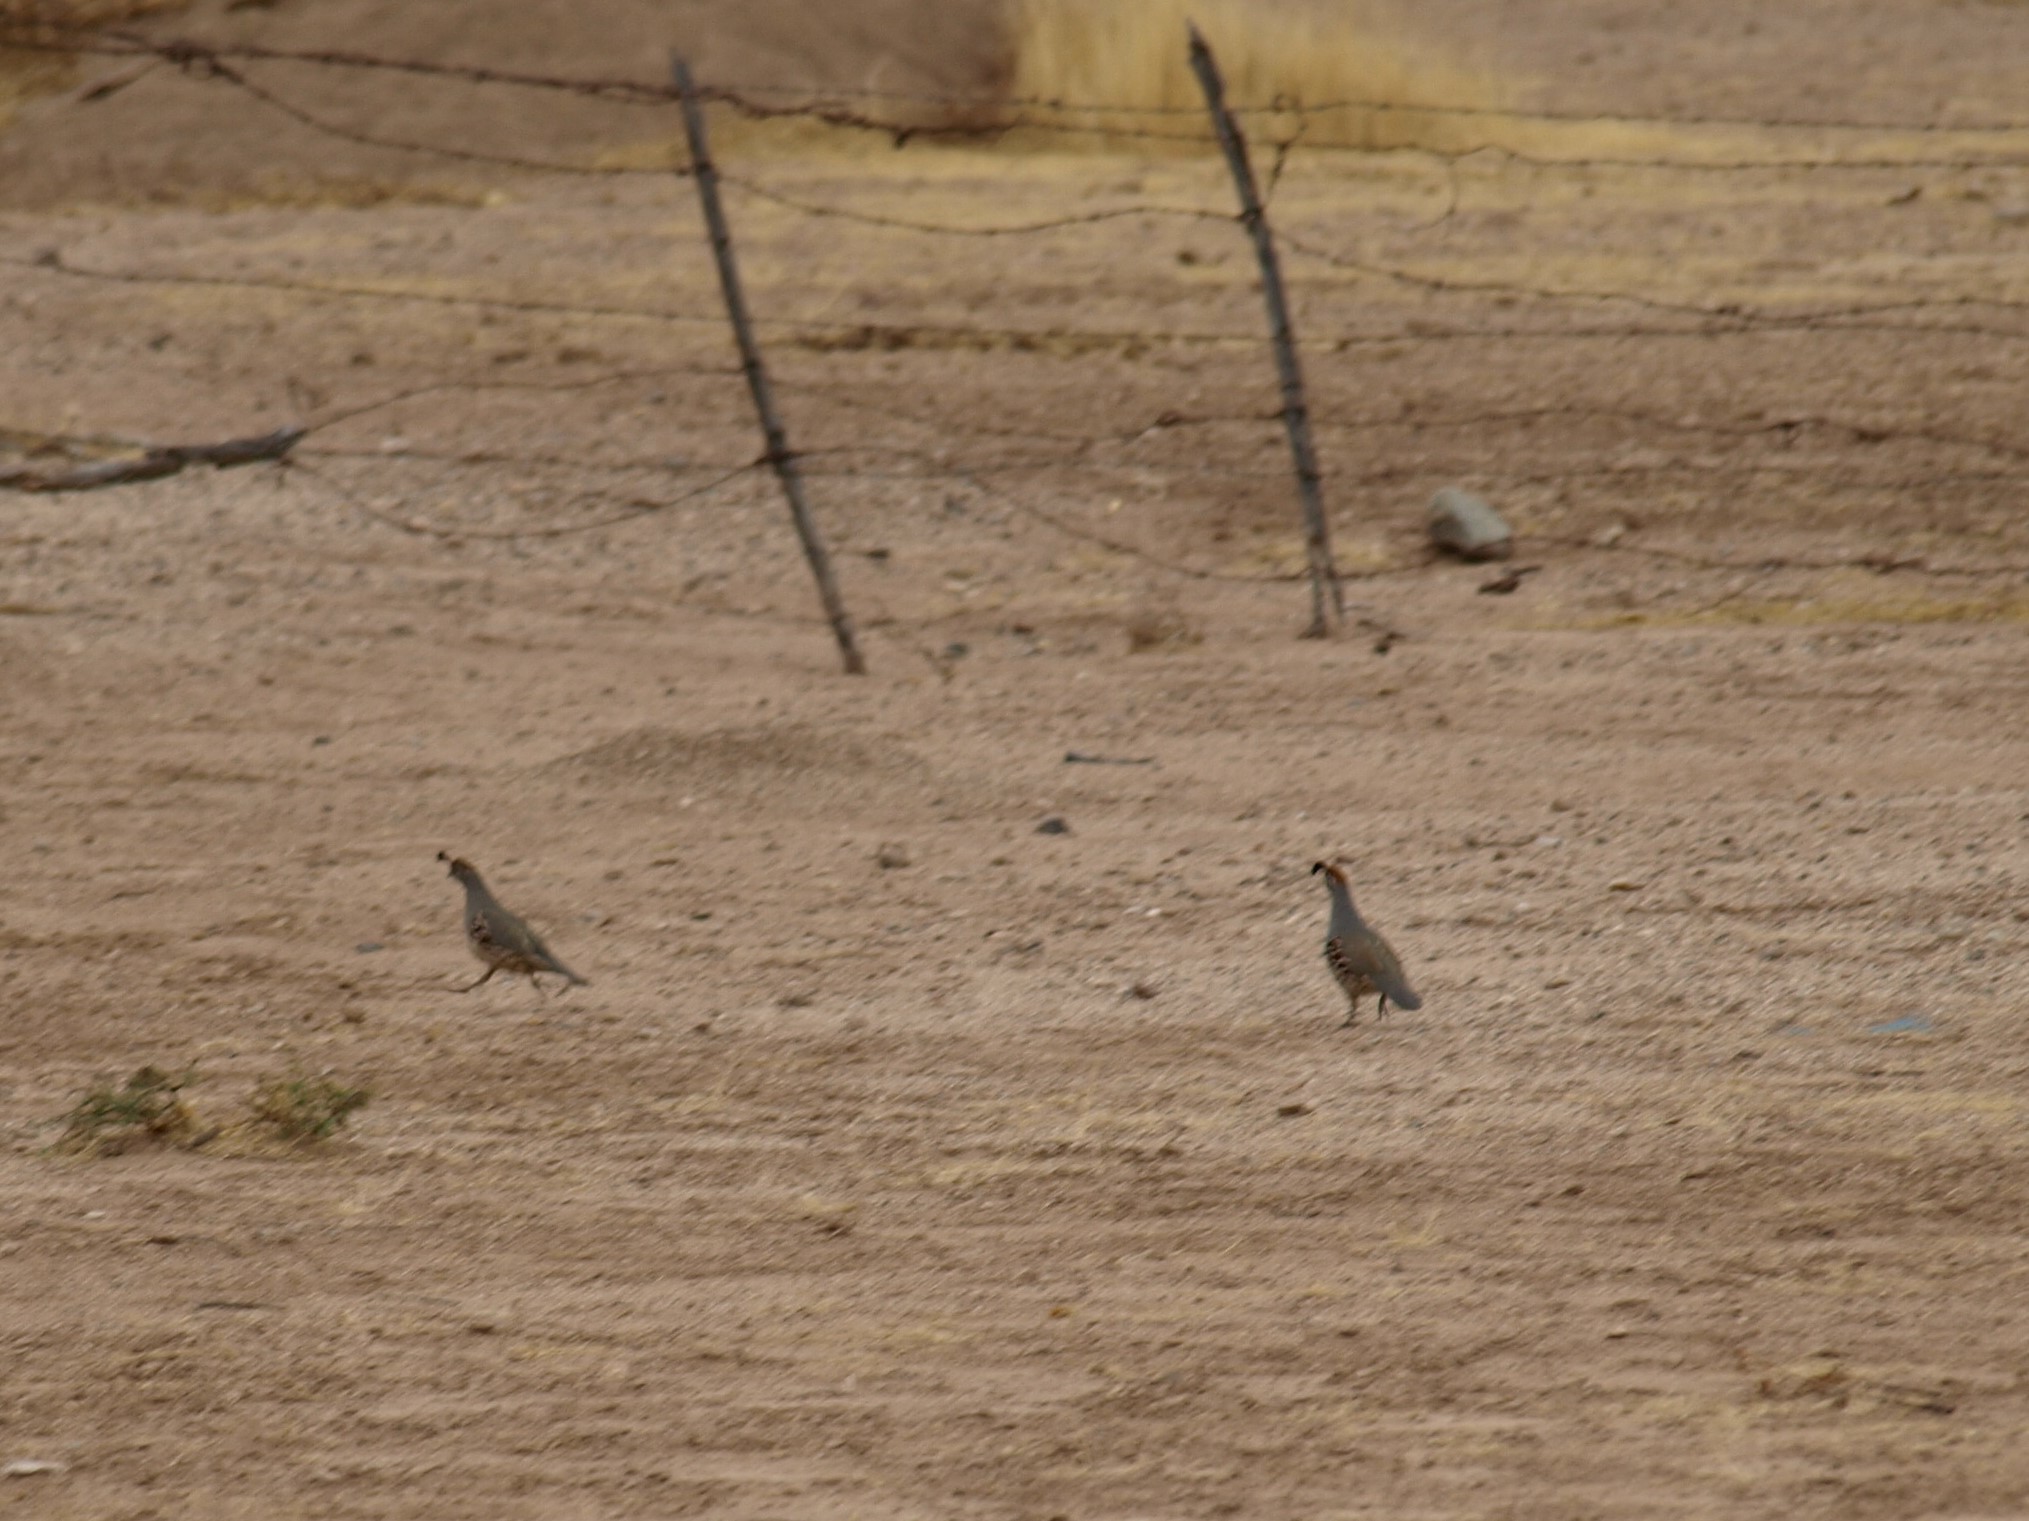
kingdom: Animalia
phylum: Chordata
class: Aves
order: Galliformes
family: Odontophoridae
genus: Callipepla
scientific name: Callipepla gambelii
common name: Gambel's quail
